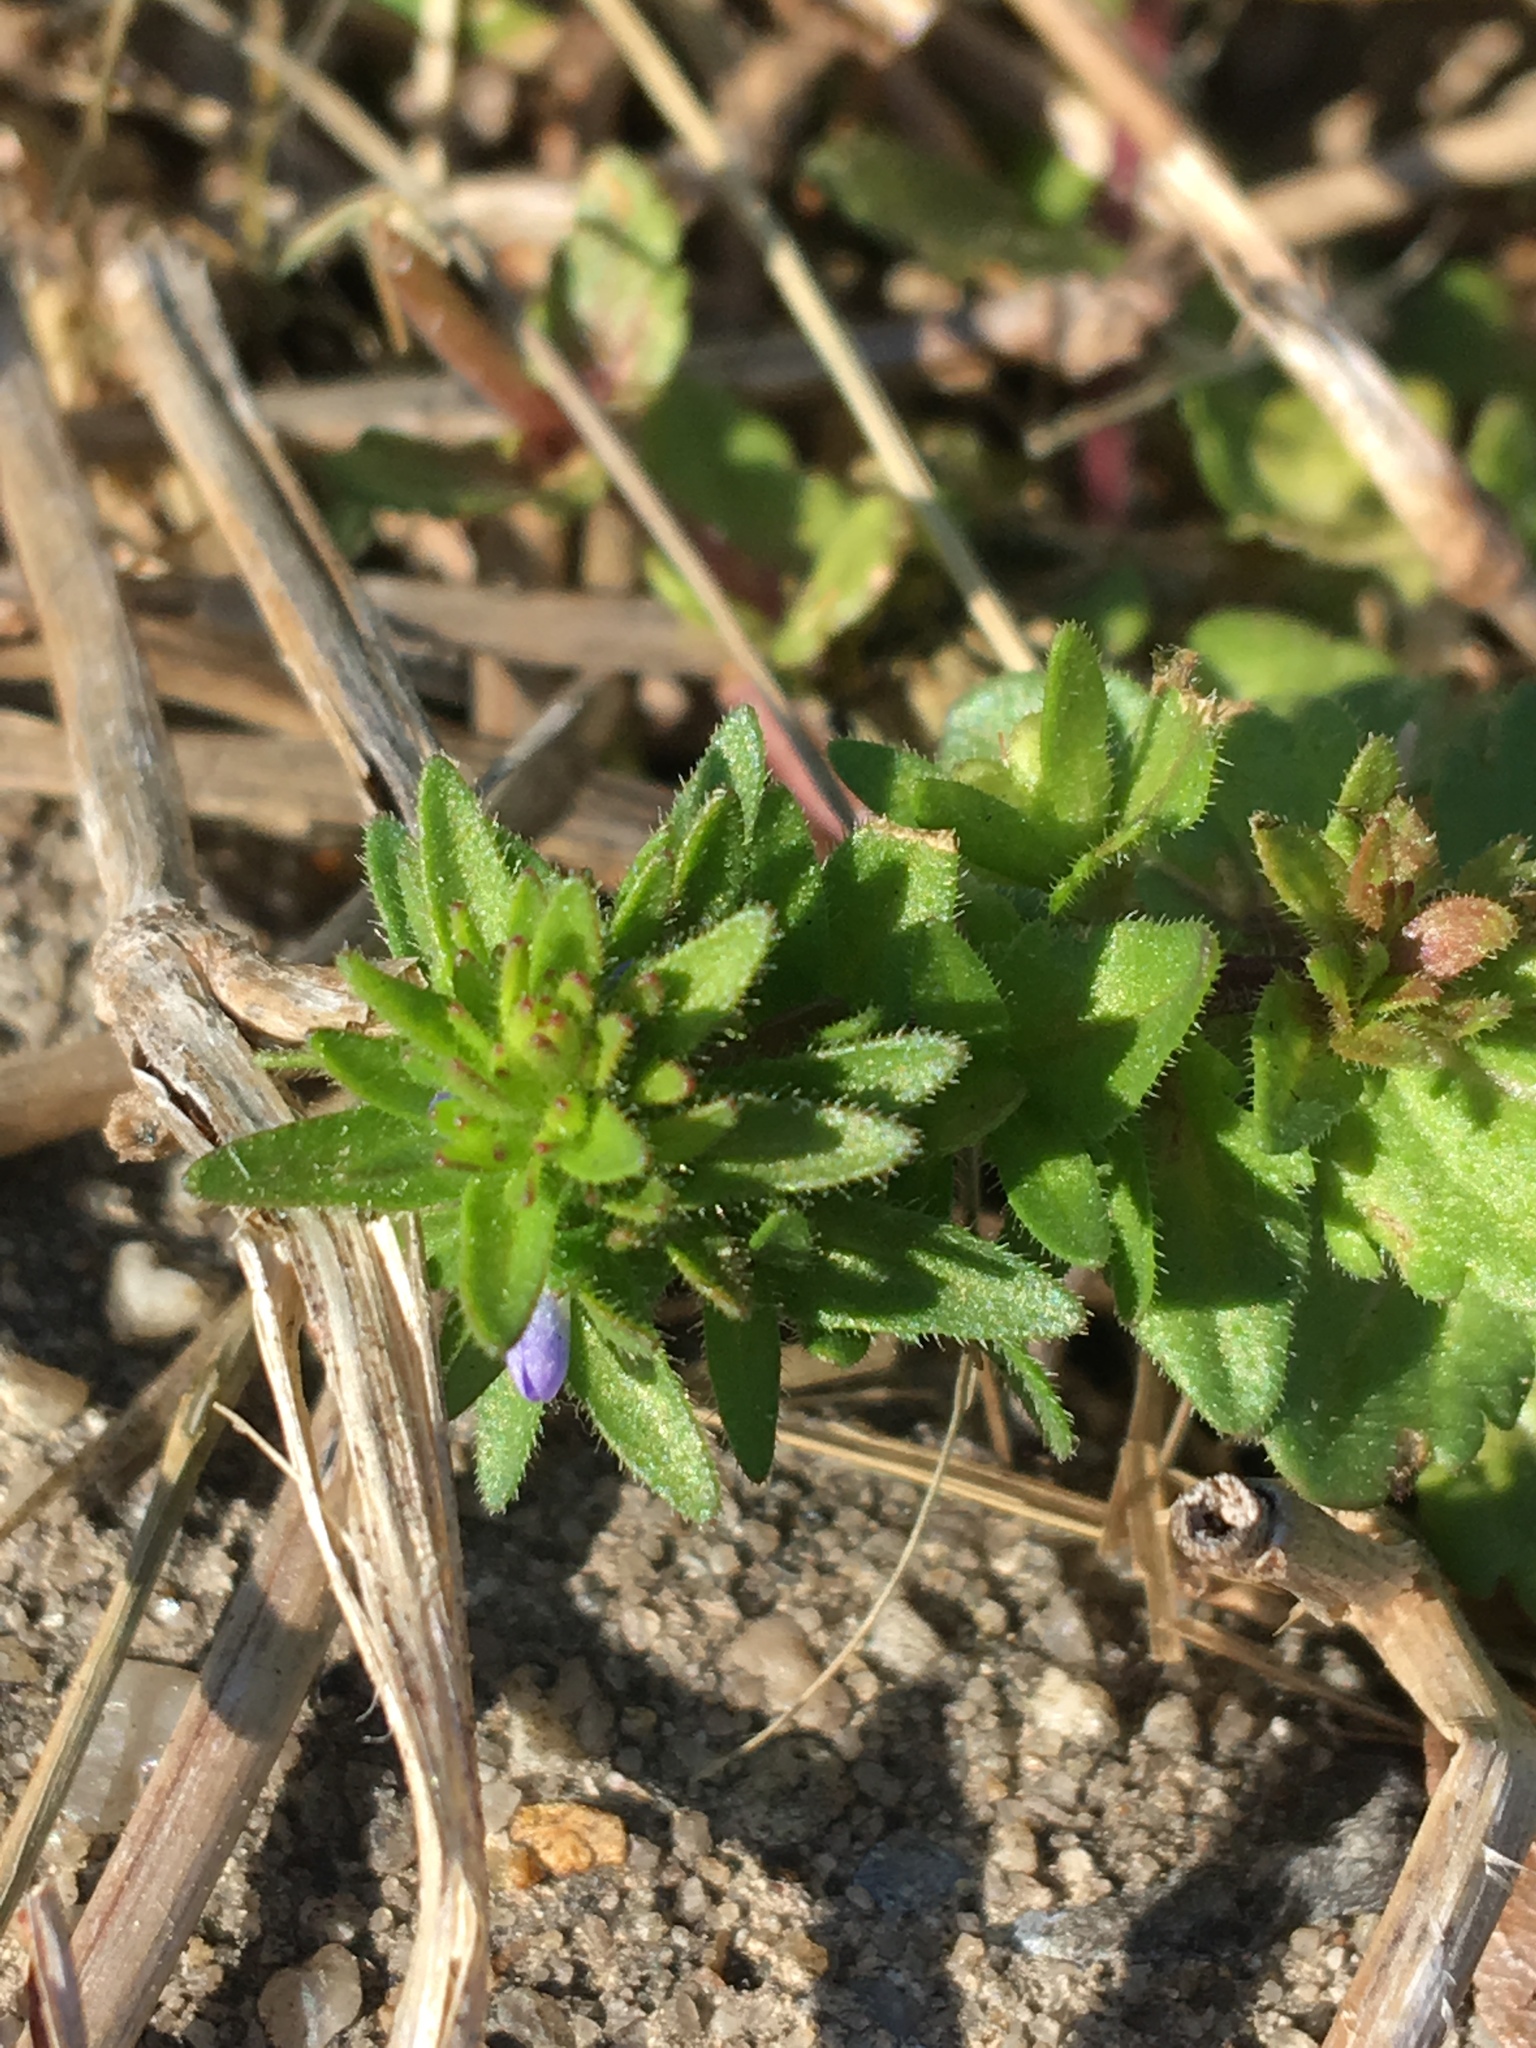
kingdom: Plantae
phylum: Tracheophyta
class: Magnoliopsida
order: Lamiales
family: Plantaginaceae
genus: Veronica
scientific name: Veronica arvensis
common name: Corn speedwell
